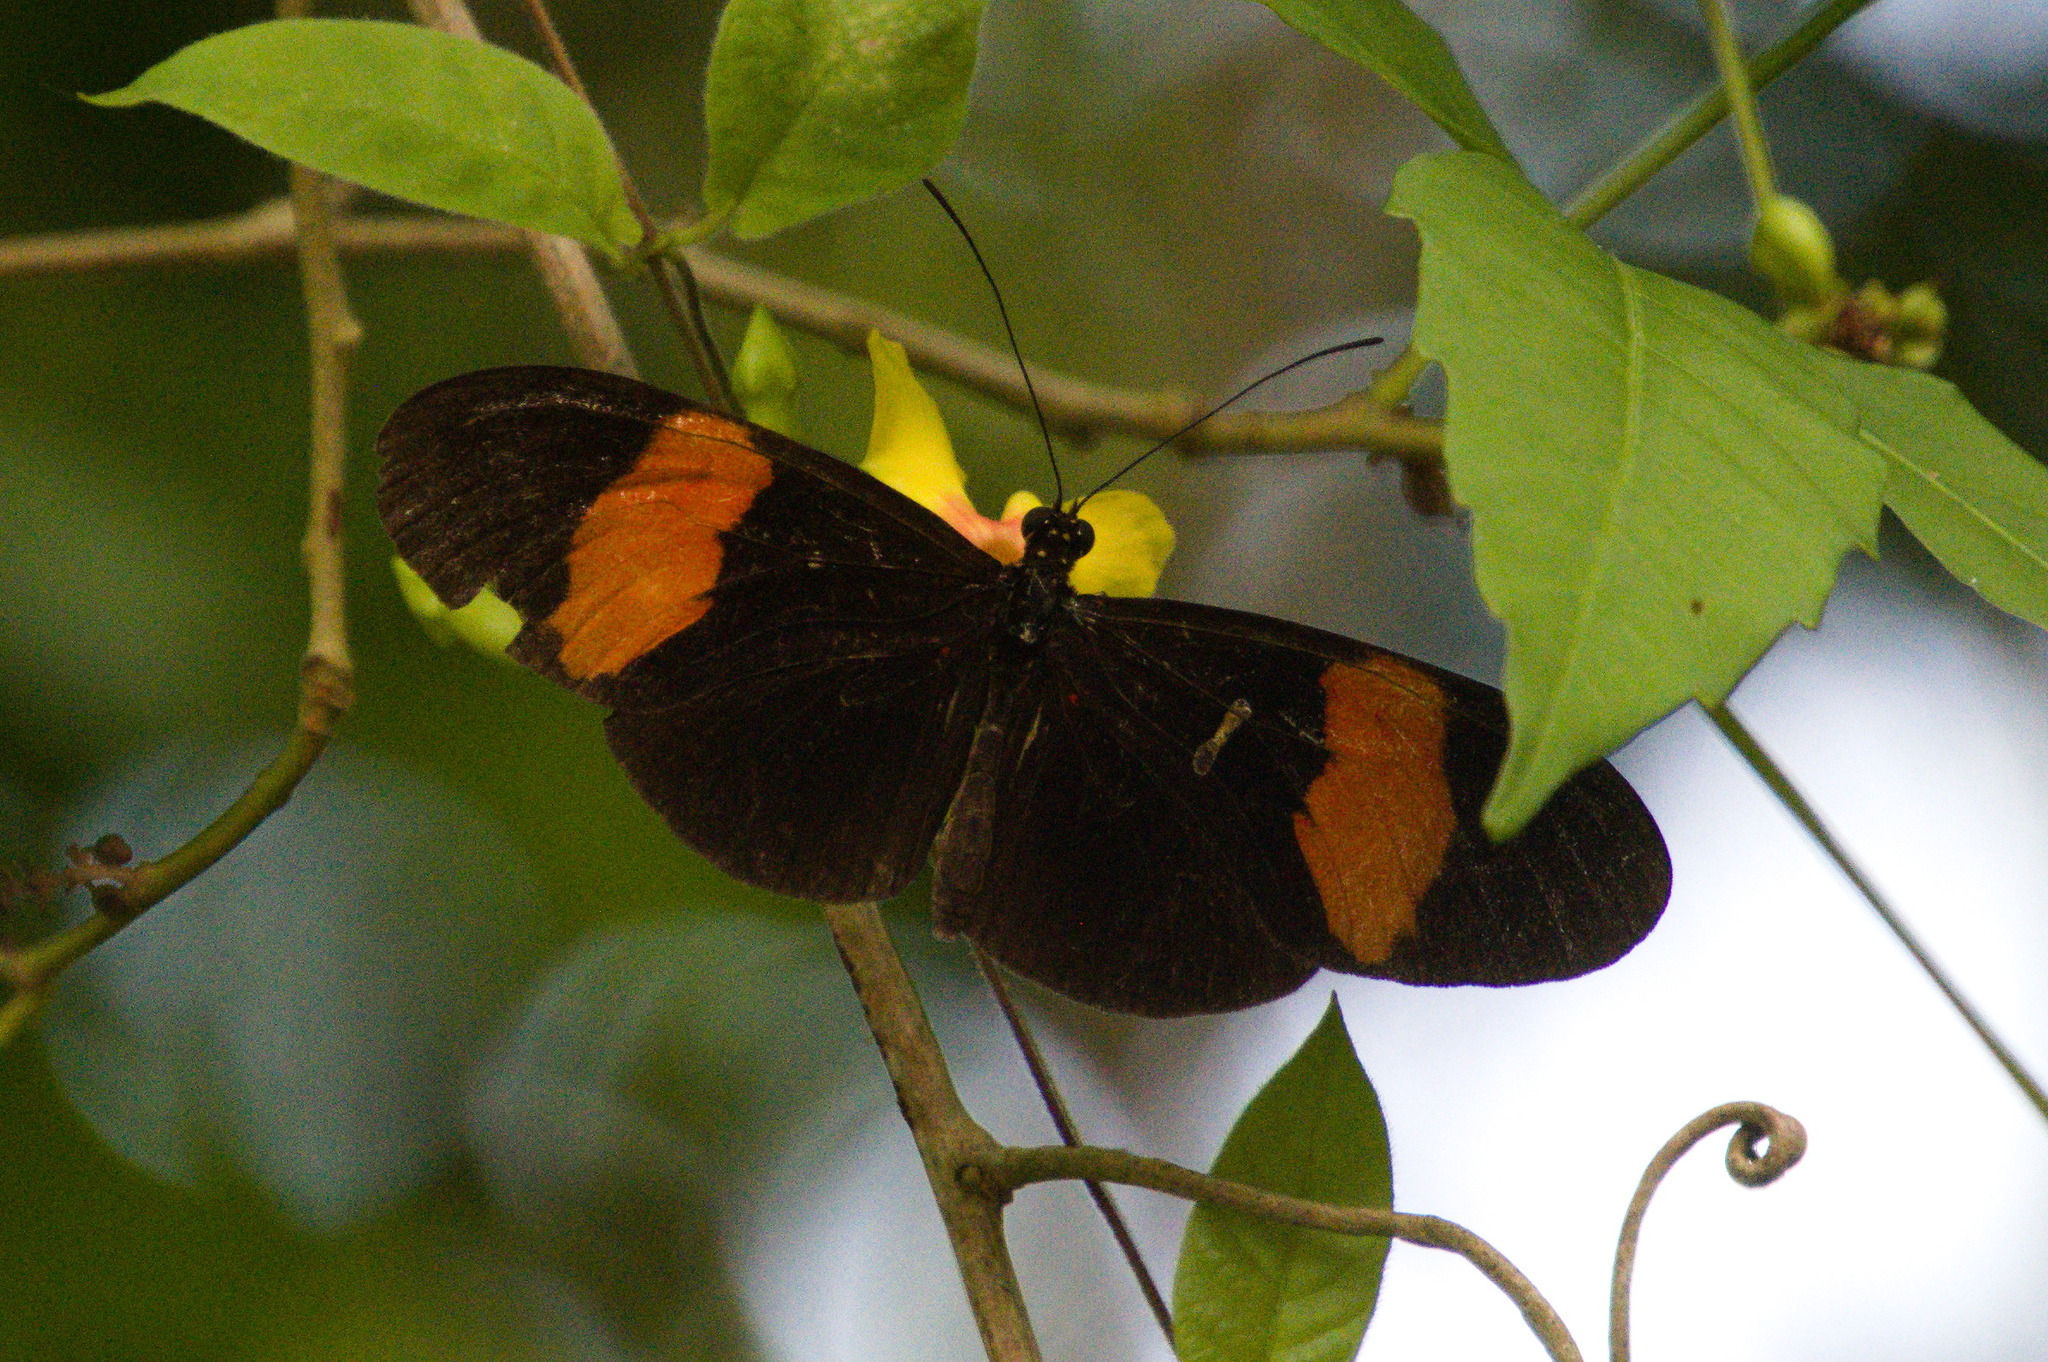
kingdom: Animalia
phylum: Arthropoda
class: Insecta
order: Lepidoptera
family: Nymphalidae
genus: Heliconius
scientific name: Heliconius erato
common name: Common patch longwing
